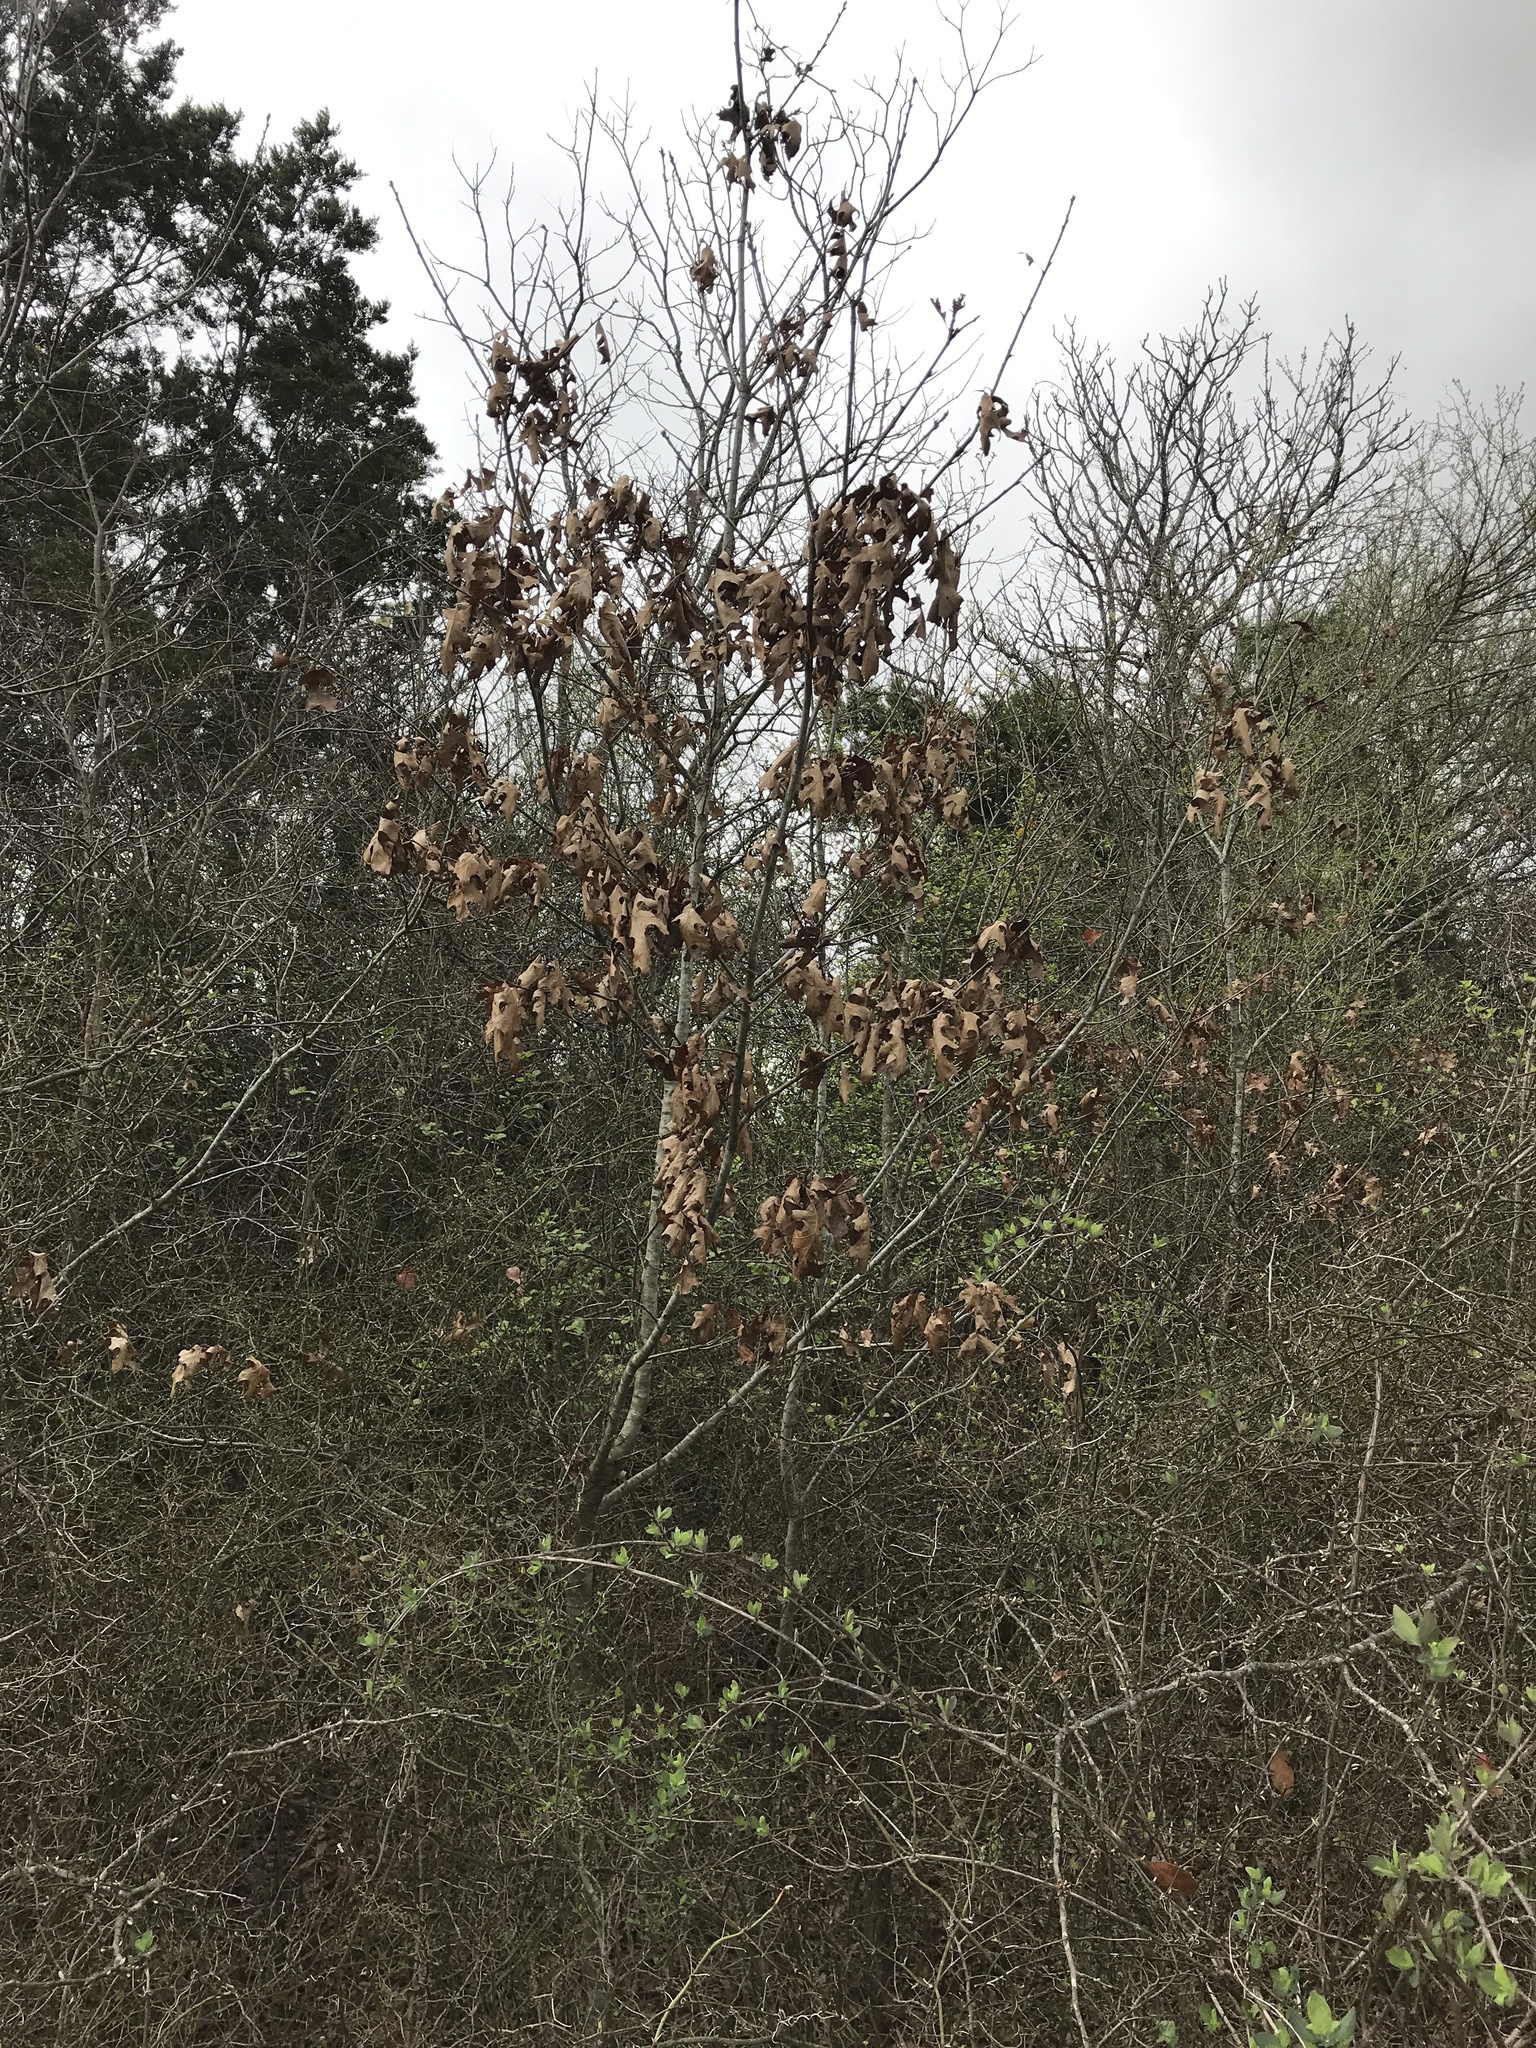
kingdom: Plantae
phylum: Tracheophyta
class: Magnoliopsida
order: Fagales
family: Fagaceae
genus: Quercus
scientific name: Quercus buckleyi
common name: Buckley oak
